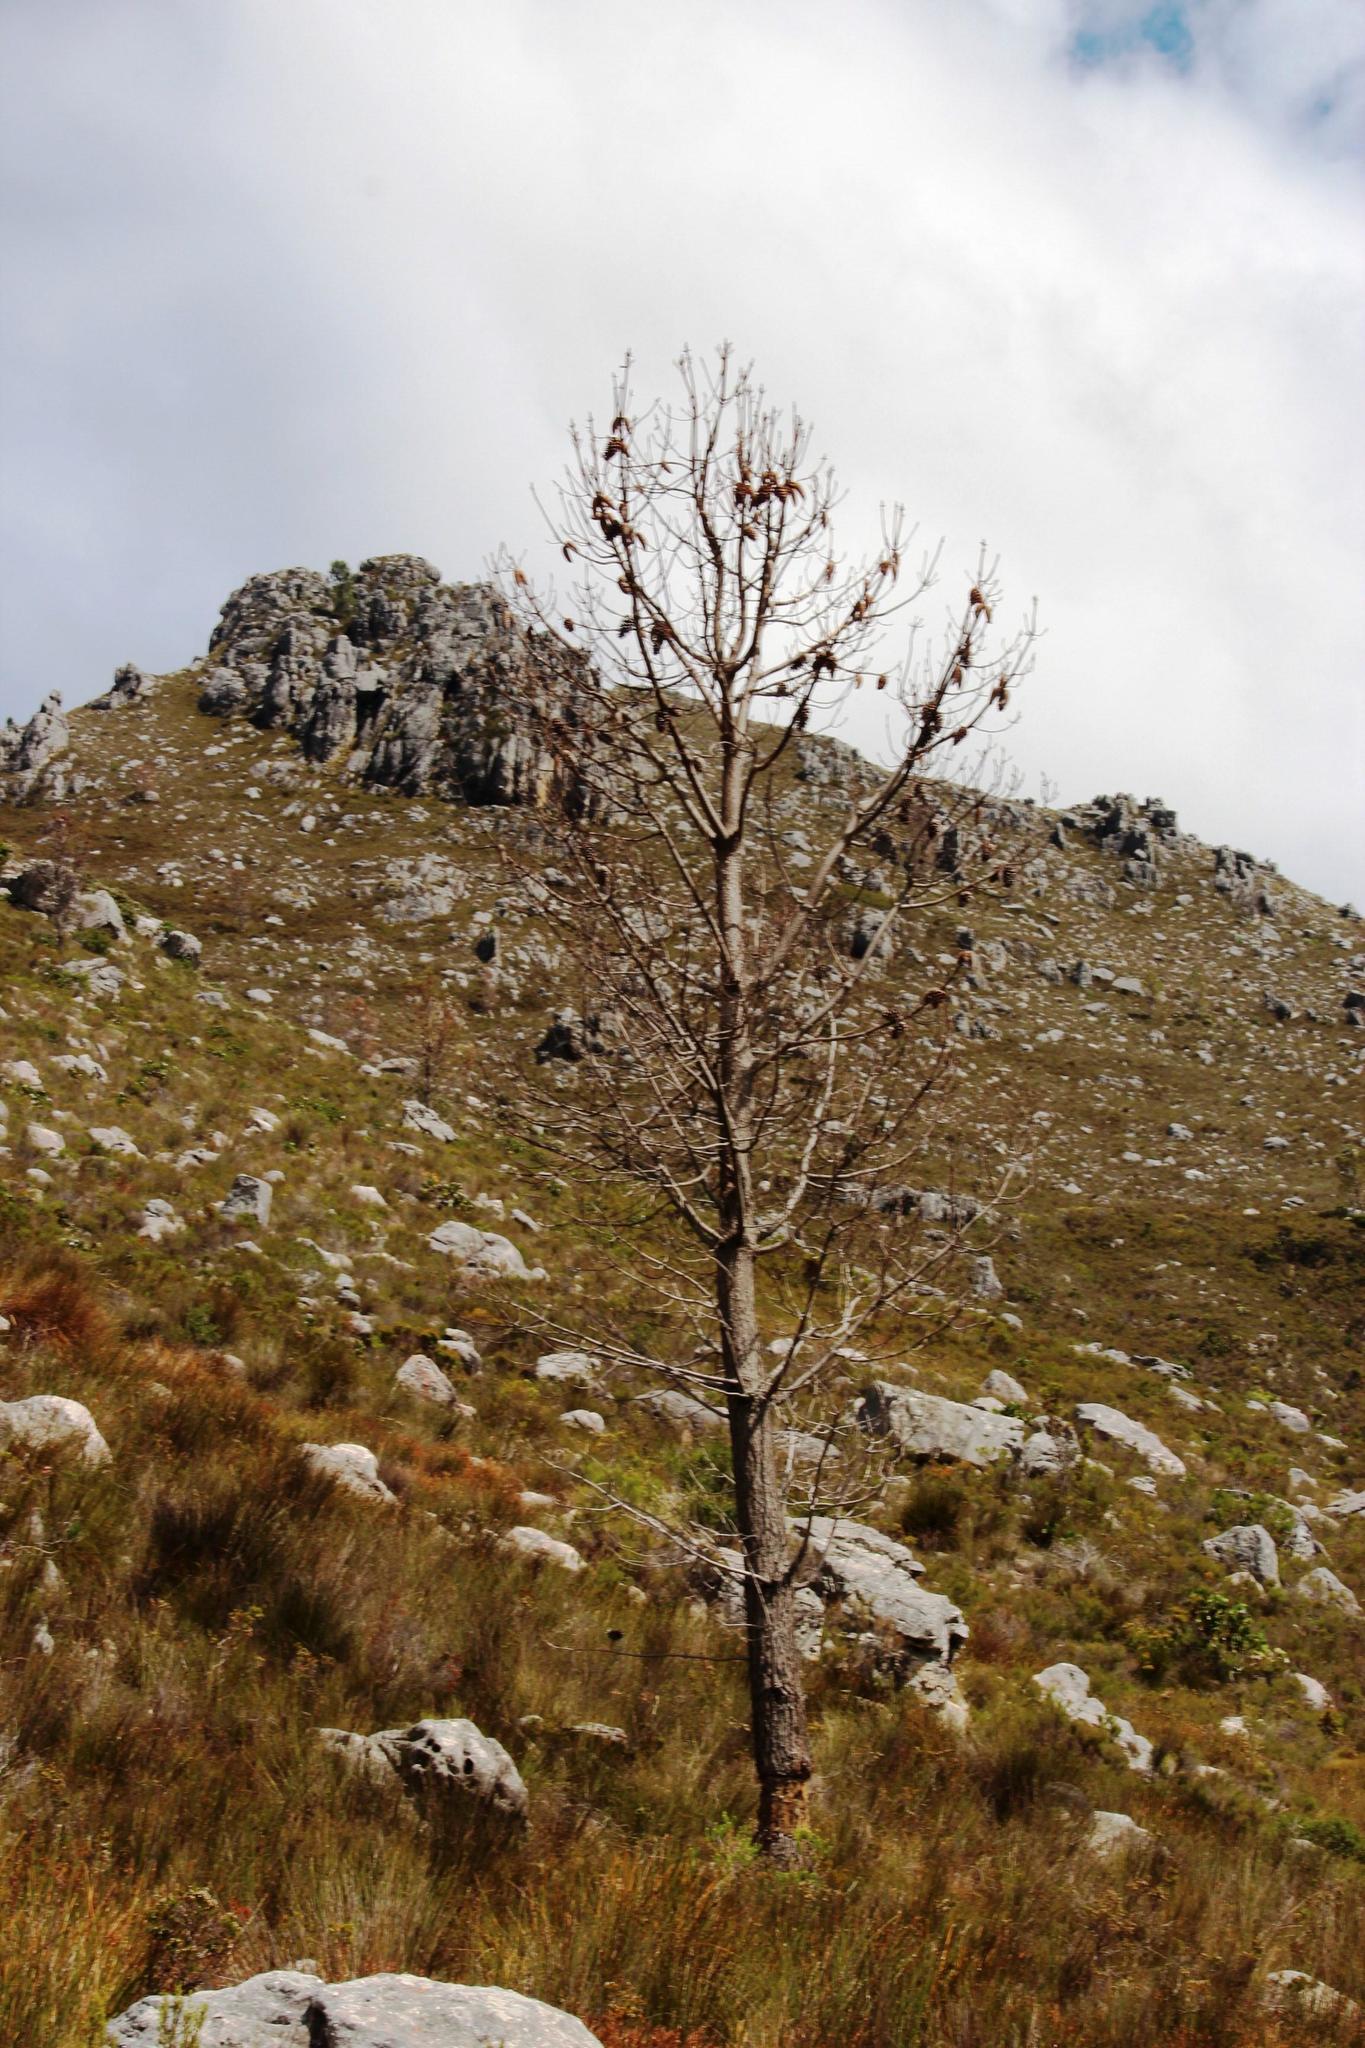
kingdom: Plantae
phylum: Tracheophyta
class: Pinopsida
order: Pinales
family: Pinaceae
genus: Pinus
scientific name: Pinus pinaster
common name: Maritime pine
